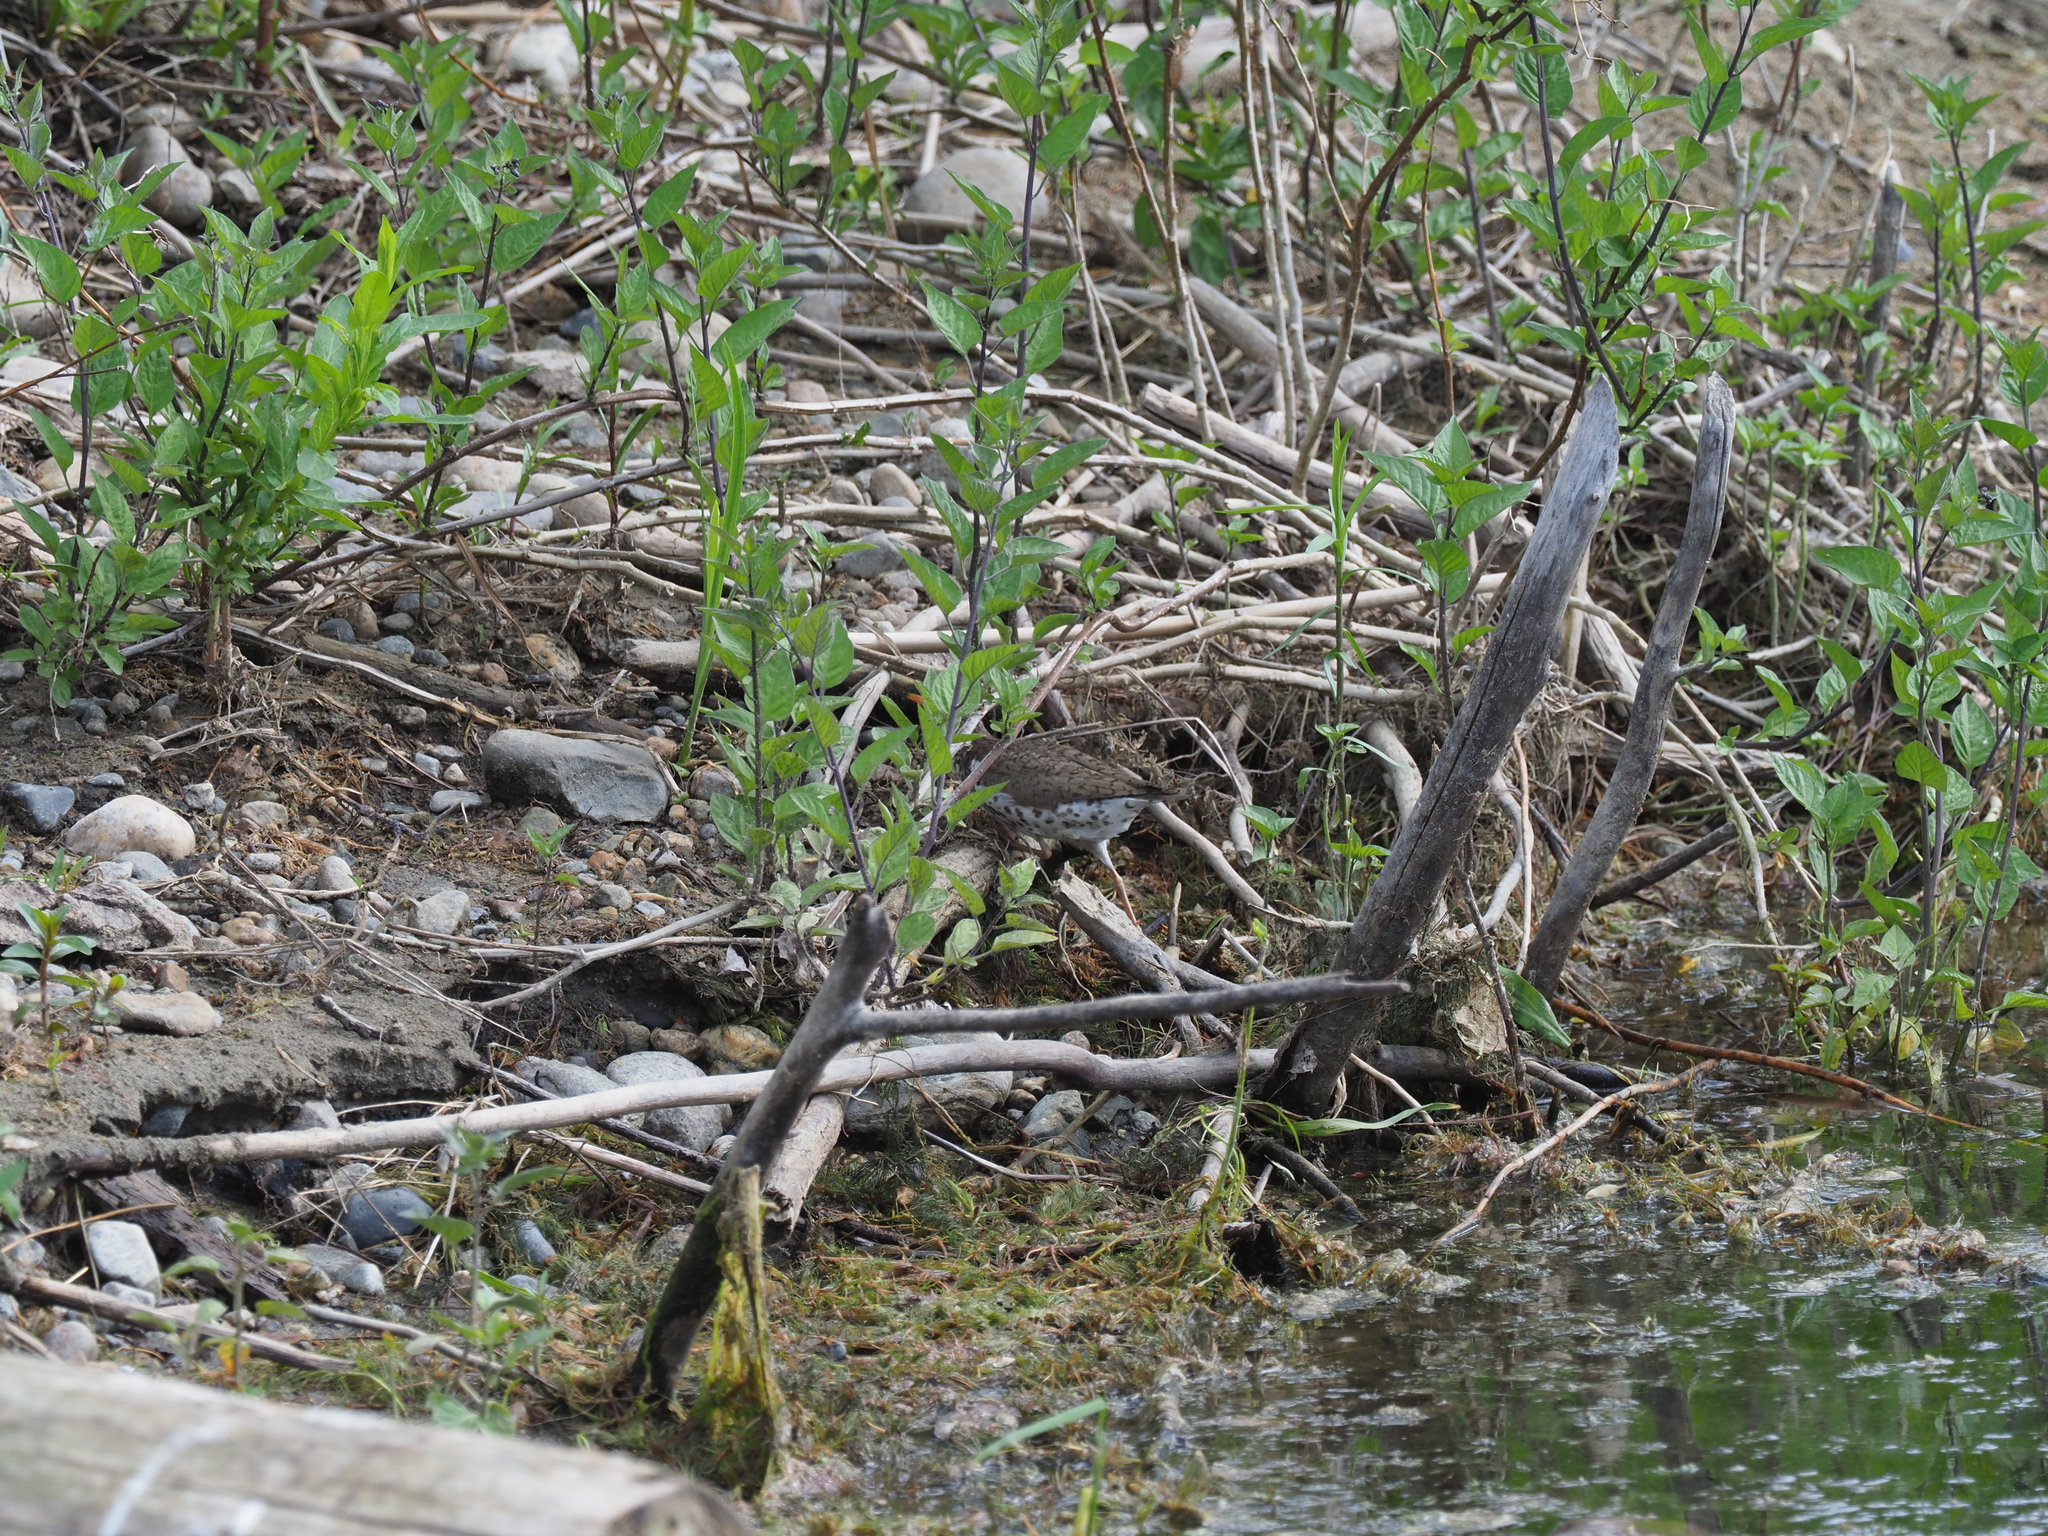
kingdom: Animalia
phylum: Chordata
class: Aves
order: Charadriiformes
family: Scolopacidae
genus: Actitis
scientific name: Actitis macularius
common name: Spotted sandpiper
